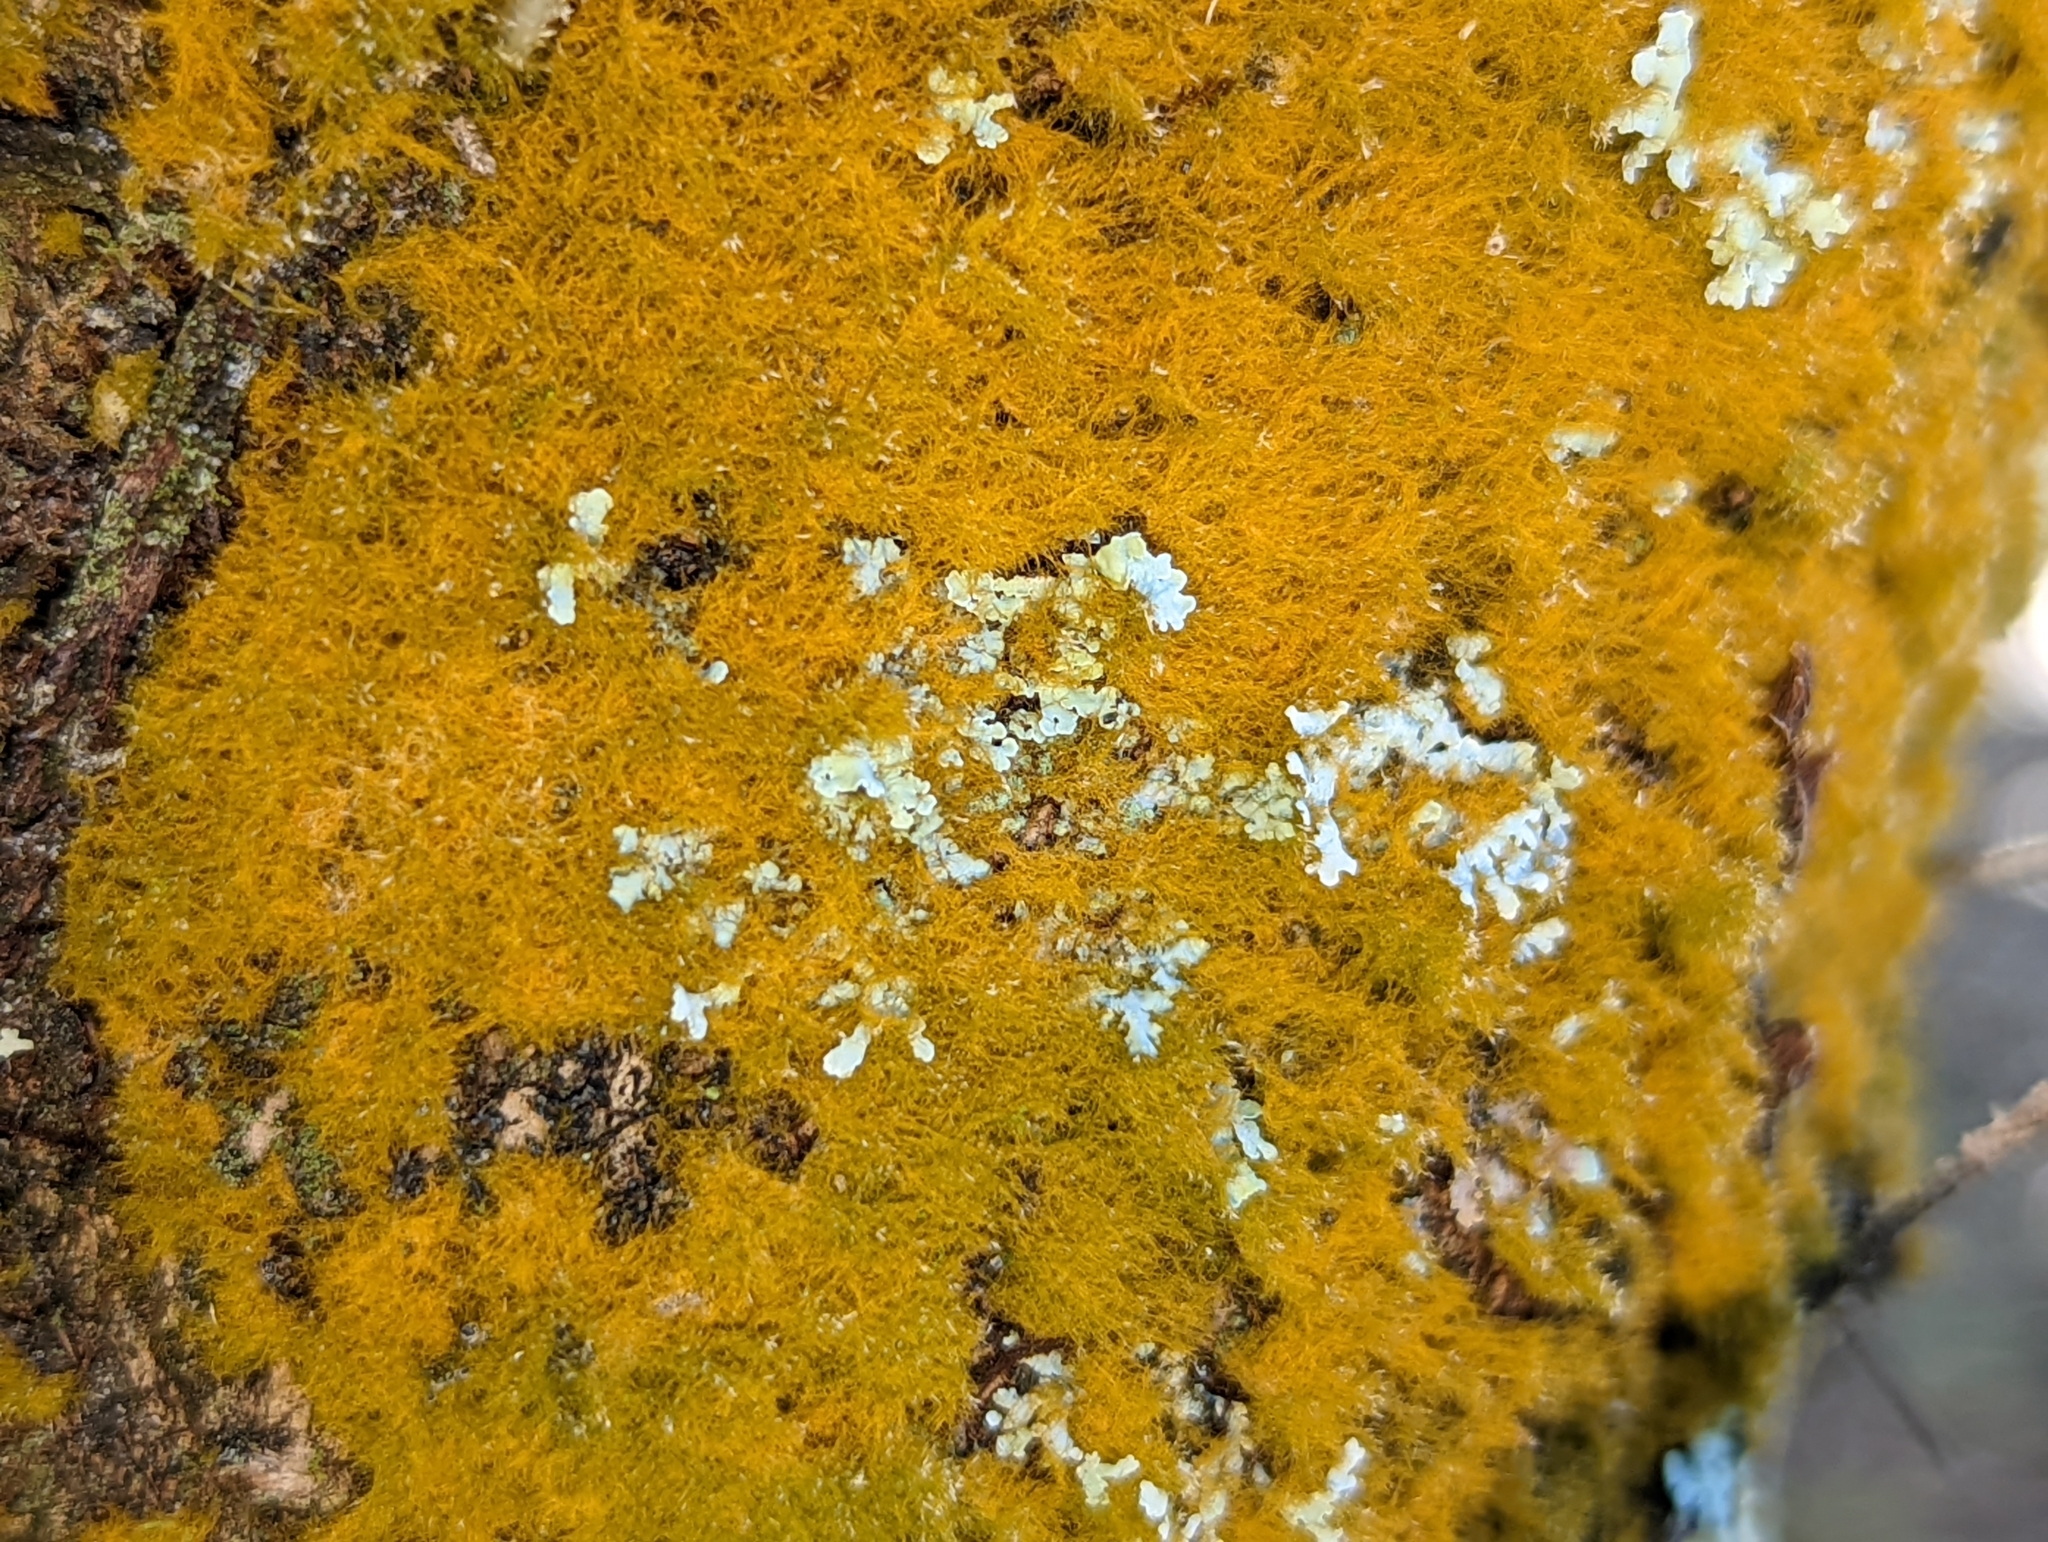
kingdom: Plantae
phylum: Chlorophyta
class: Ulvophyceae
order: Trentepohliales
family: Trentepohliaceae
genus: Trentepohlia
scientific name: Trentepohlia aurea
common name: Orange rock hair
